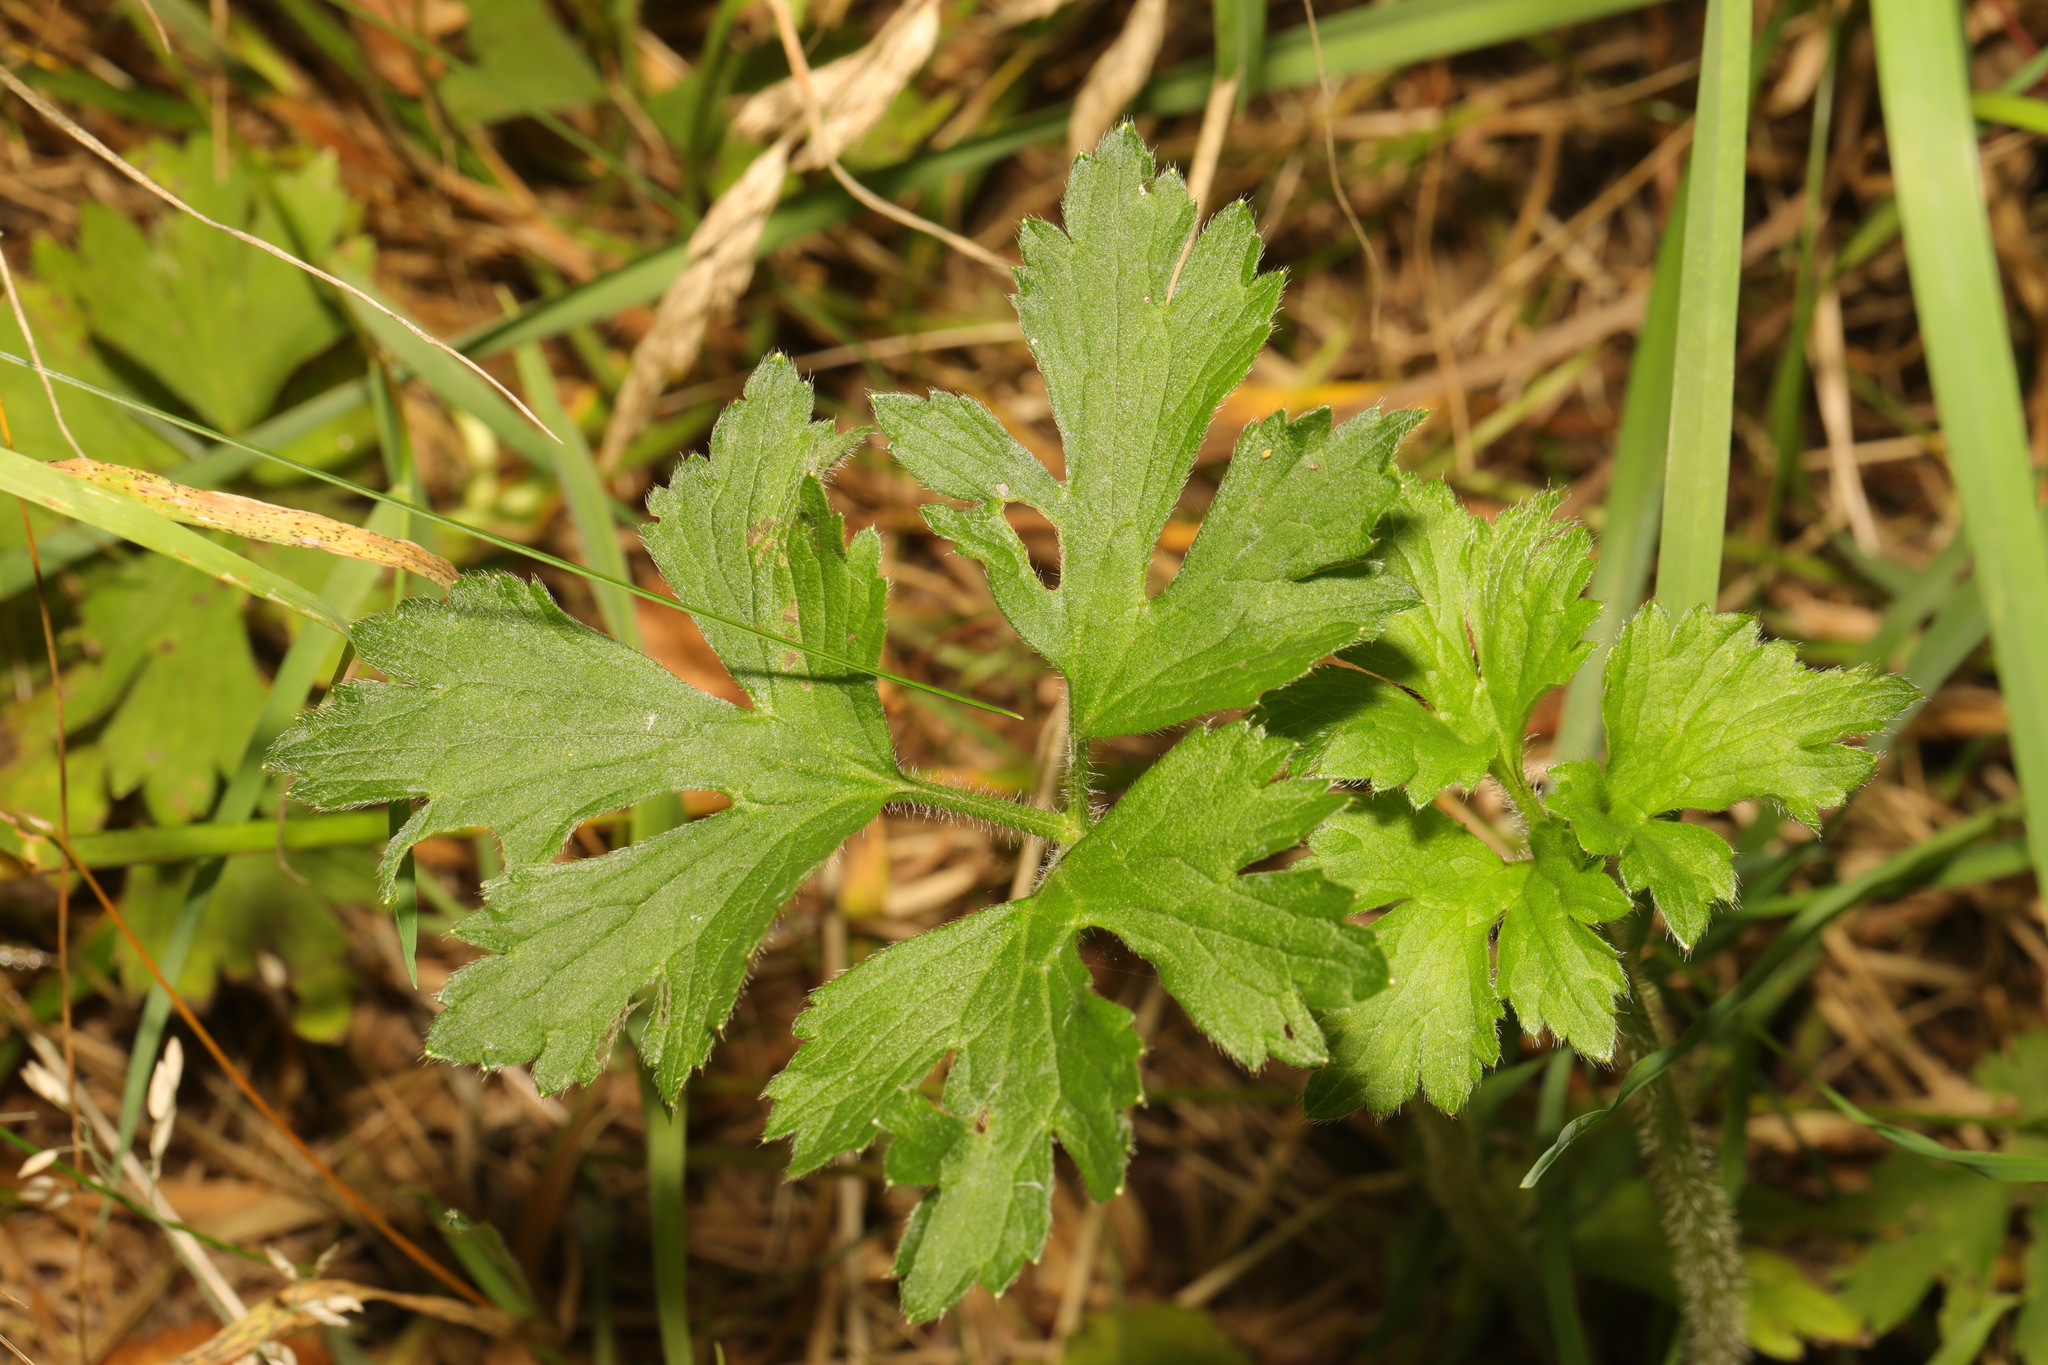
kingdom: Plantae
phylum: Tracheophyta
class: Magnoliopsida
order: Ranunculales
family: Ranunculaceae
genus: Ranunculus
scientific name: Ranunculus repens
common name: Creeping buttercup
